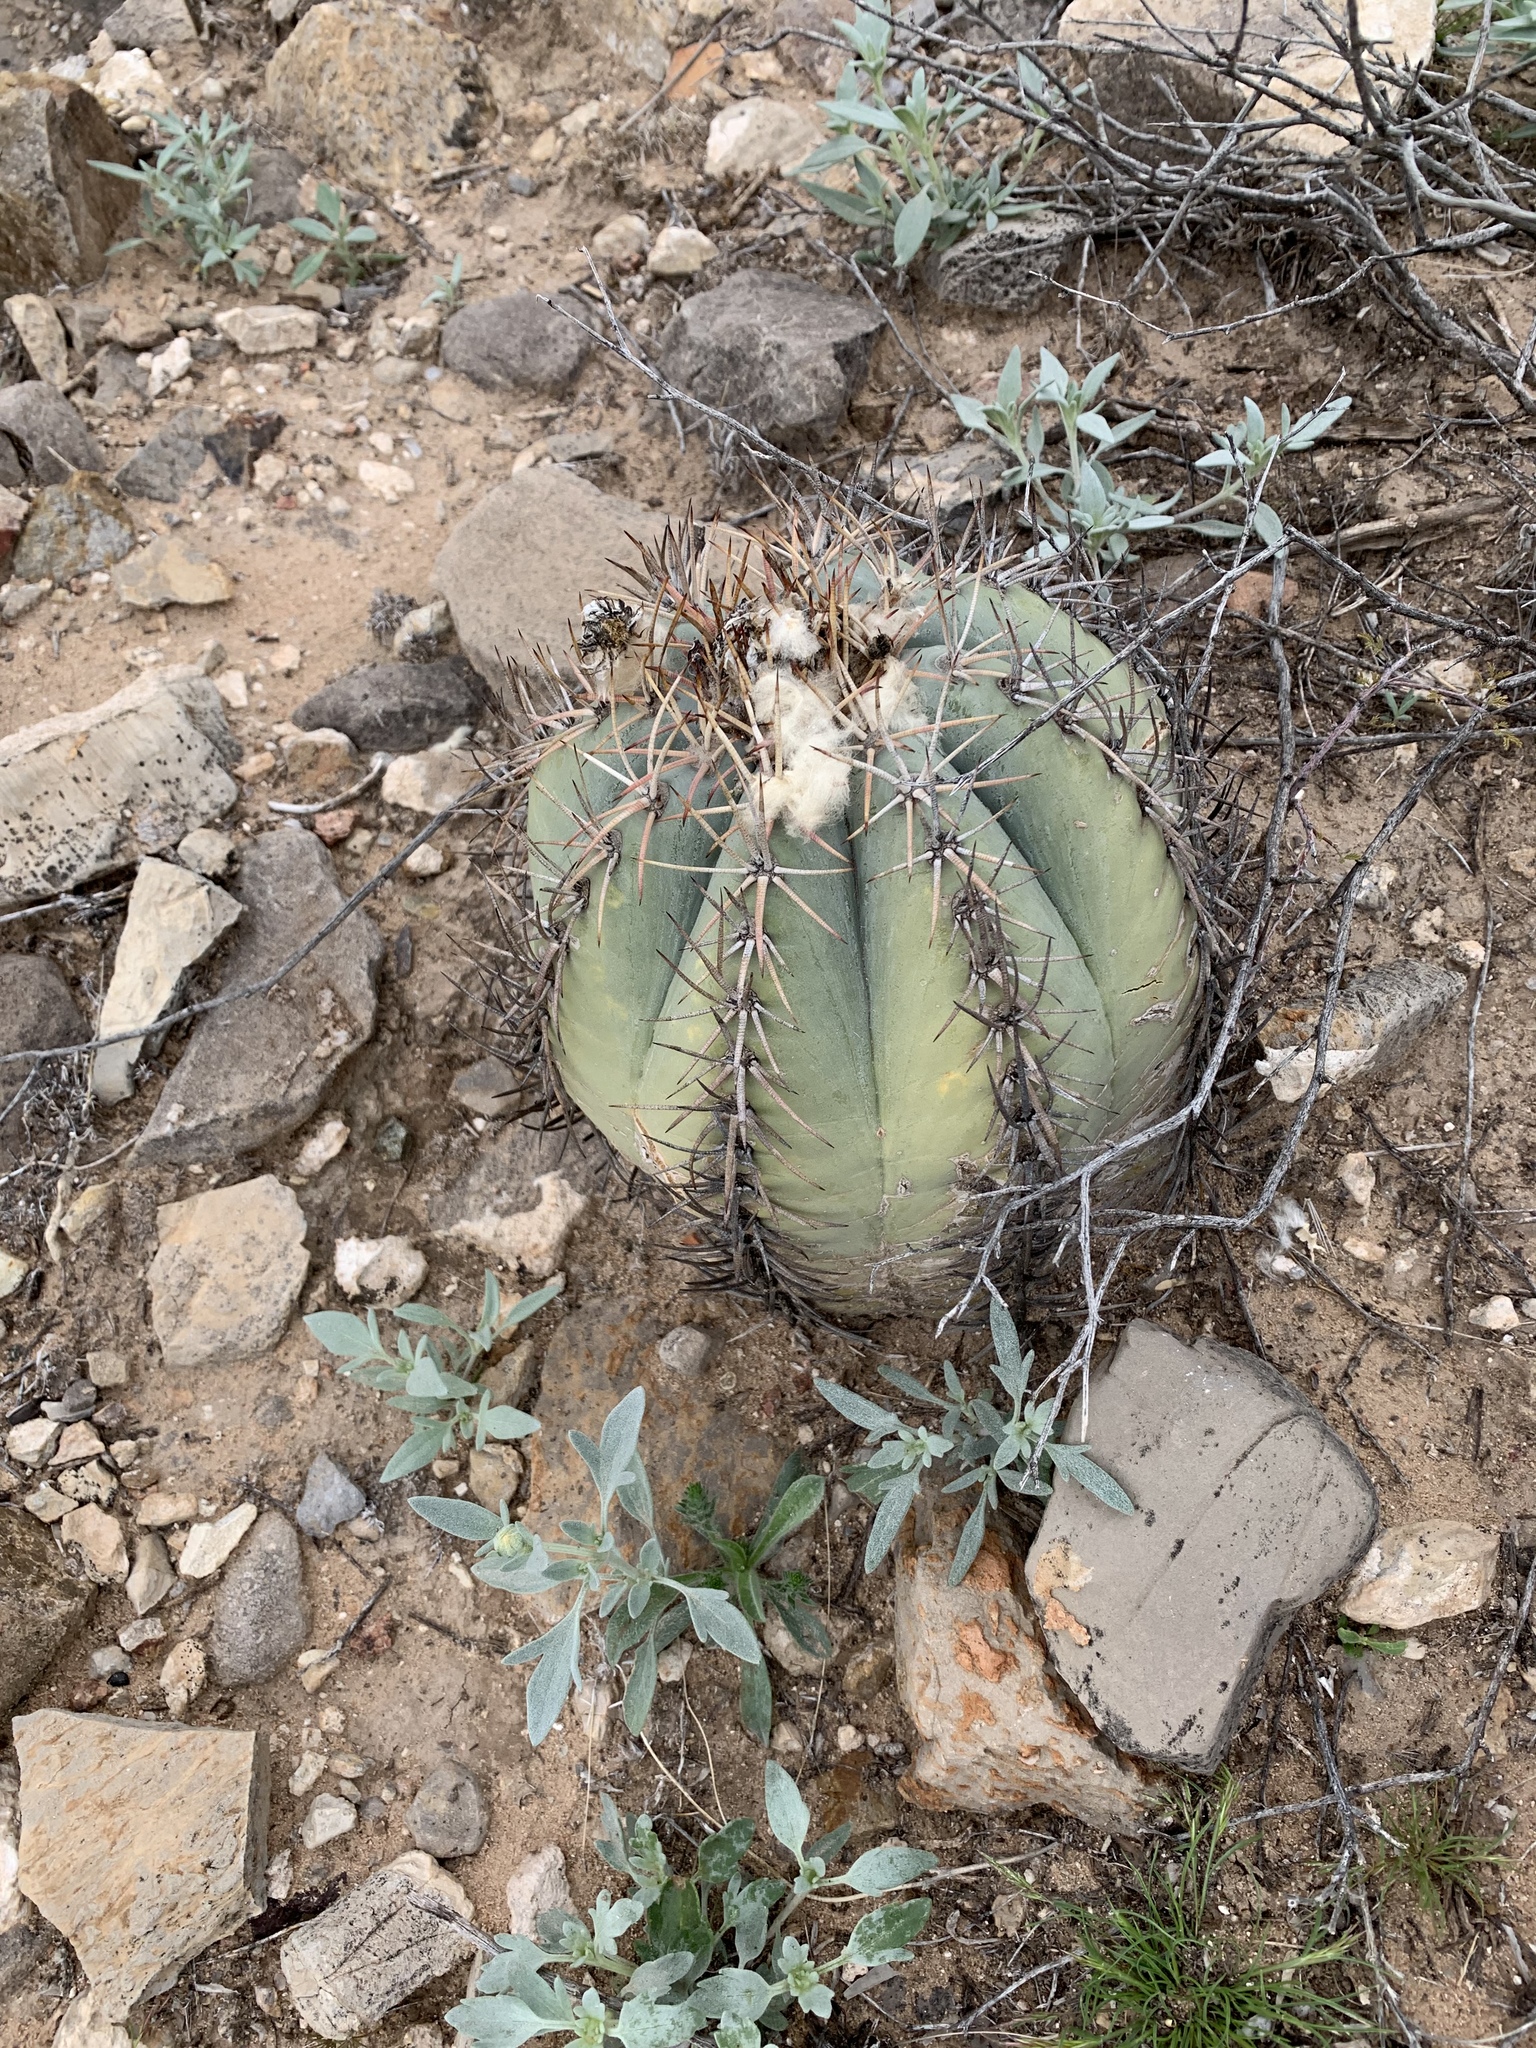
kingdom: Plantae
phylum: Tracheophyta
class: Magnoliopsida
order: Caryophyllales
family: Cactaceae
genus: Echinocactus
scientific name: Echinocactus horizonthalonius
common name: Devilshead
